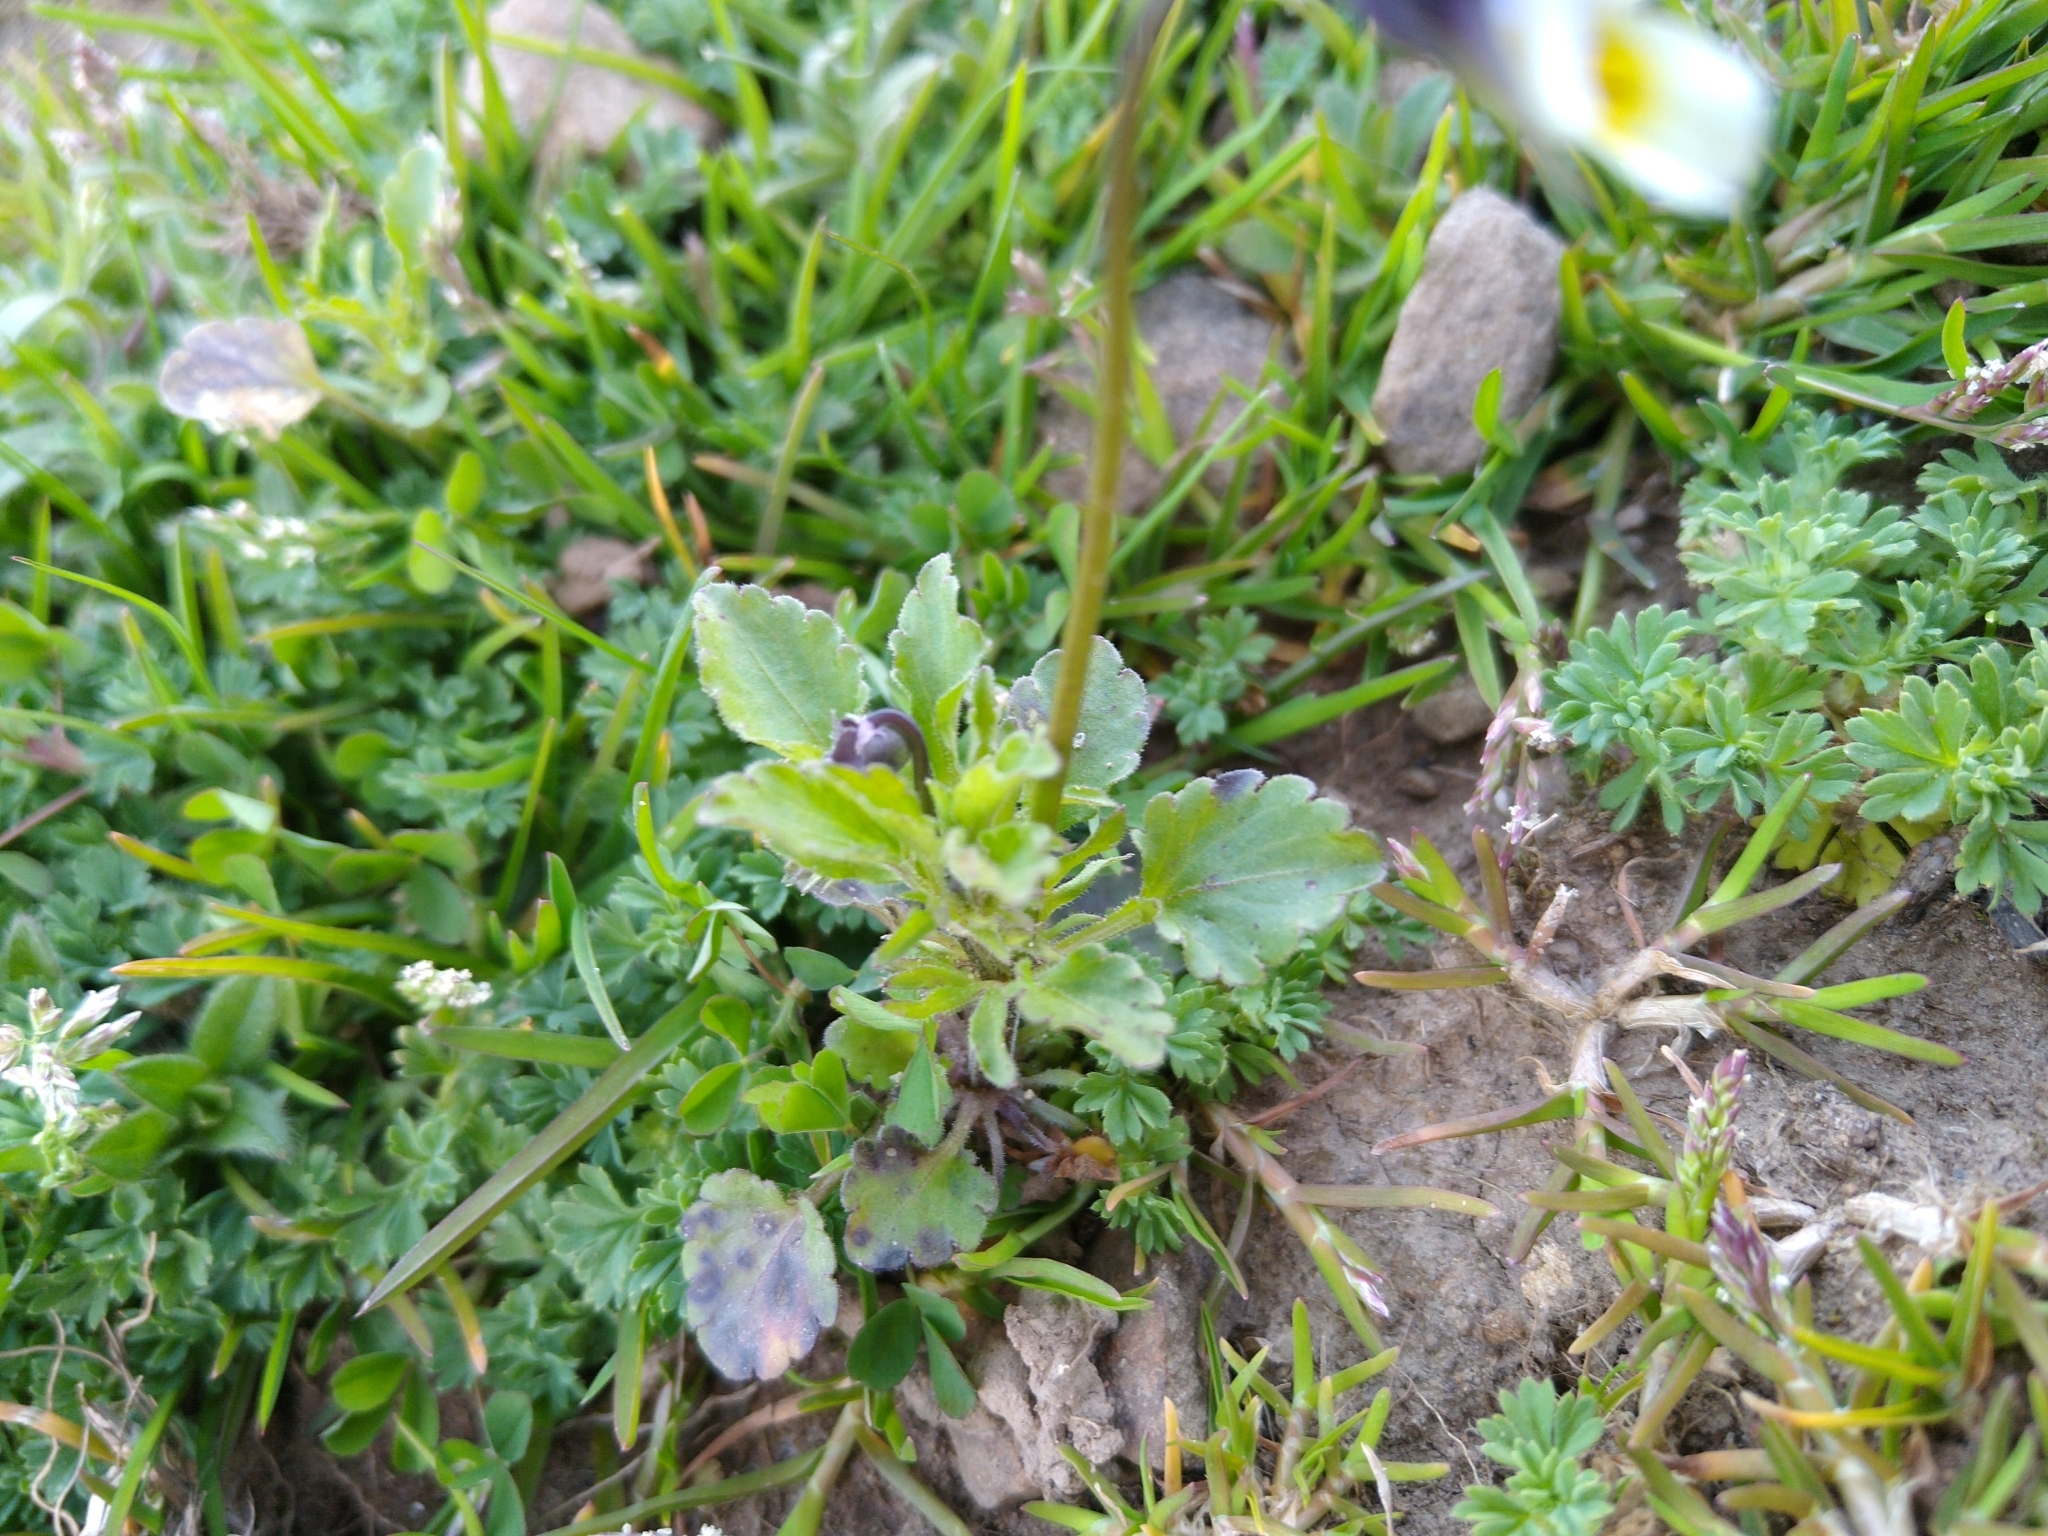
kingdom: Plantae
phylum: Tracheophyta
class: Magnoliopsida
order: Malpighiales
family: Violaceae
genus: Viola
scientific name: Viola arvensis
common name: Field pansy
